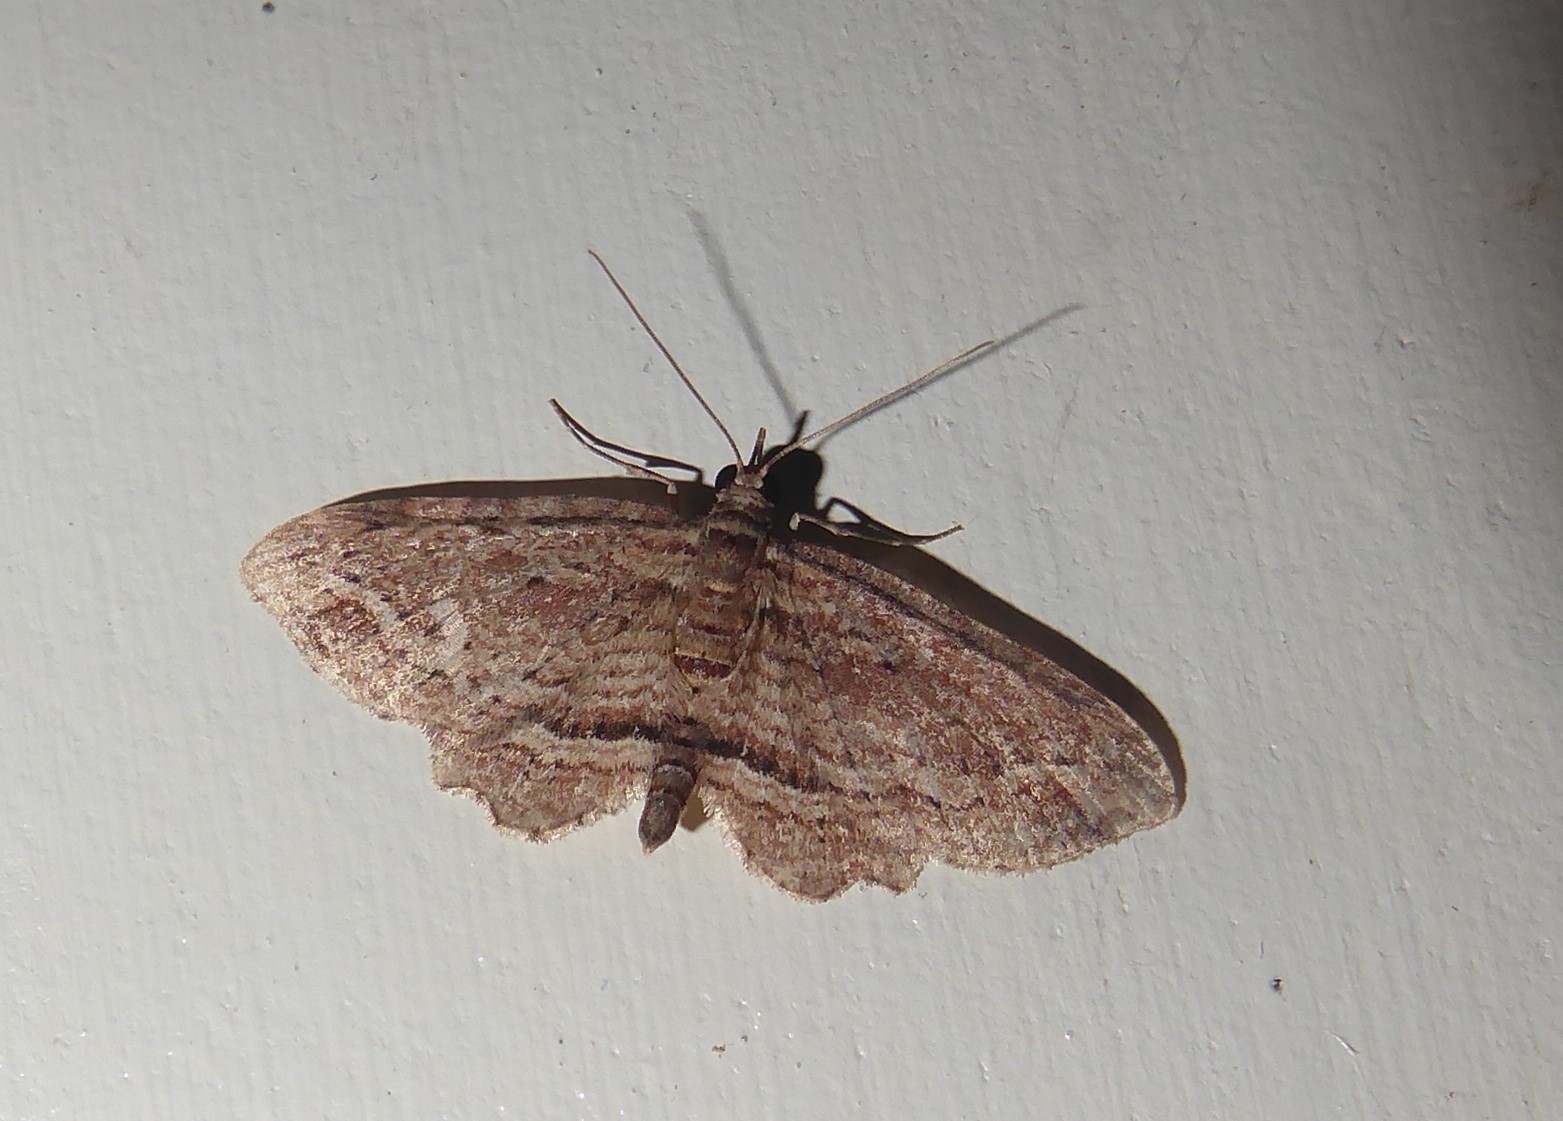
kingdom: Animalia
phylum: Arthropoda
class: Insecta
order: Lepidoptera
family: Geometridae
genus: Chloroclystis
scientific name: Chloroclystis filata
